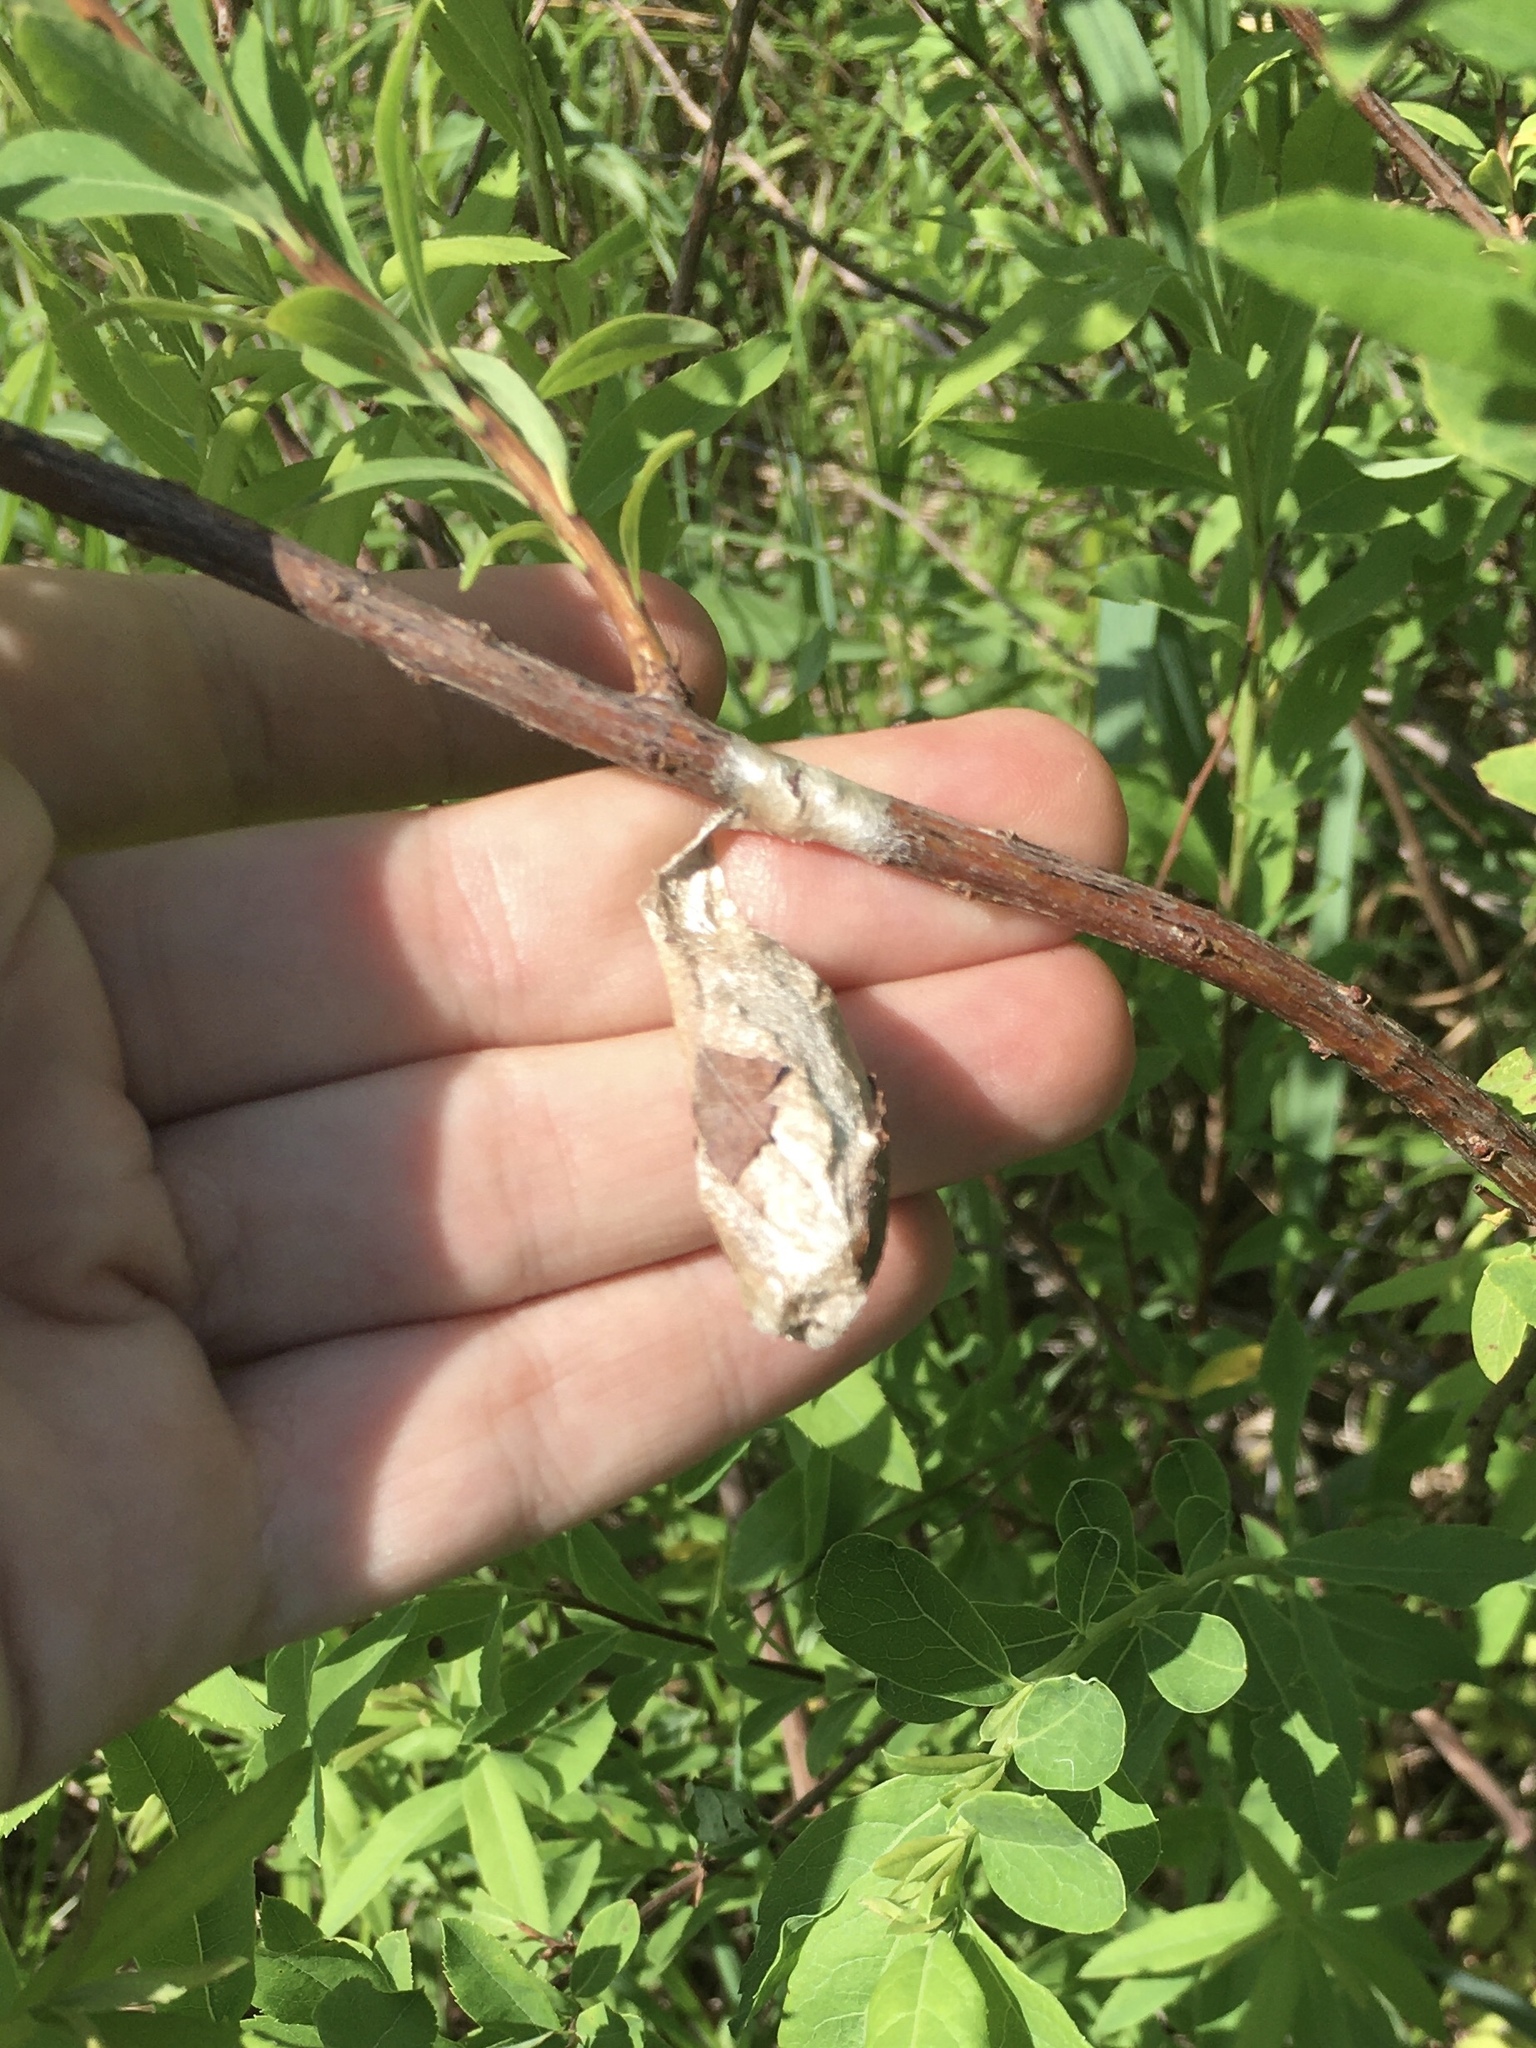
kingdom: Animalia
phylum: Arthropoda
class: Insecta
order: Lepidoptera
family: Saturniidae
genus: Callosamia
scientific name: Callosamia promethea
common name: Promethea silkmoth
